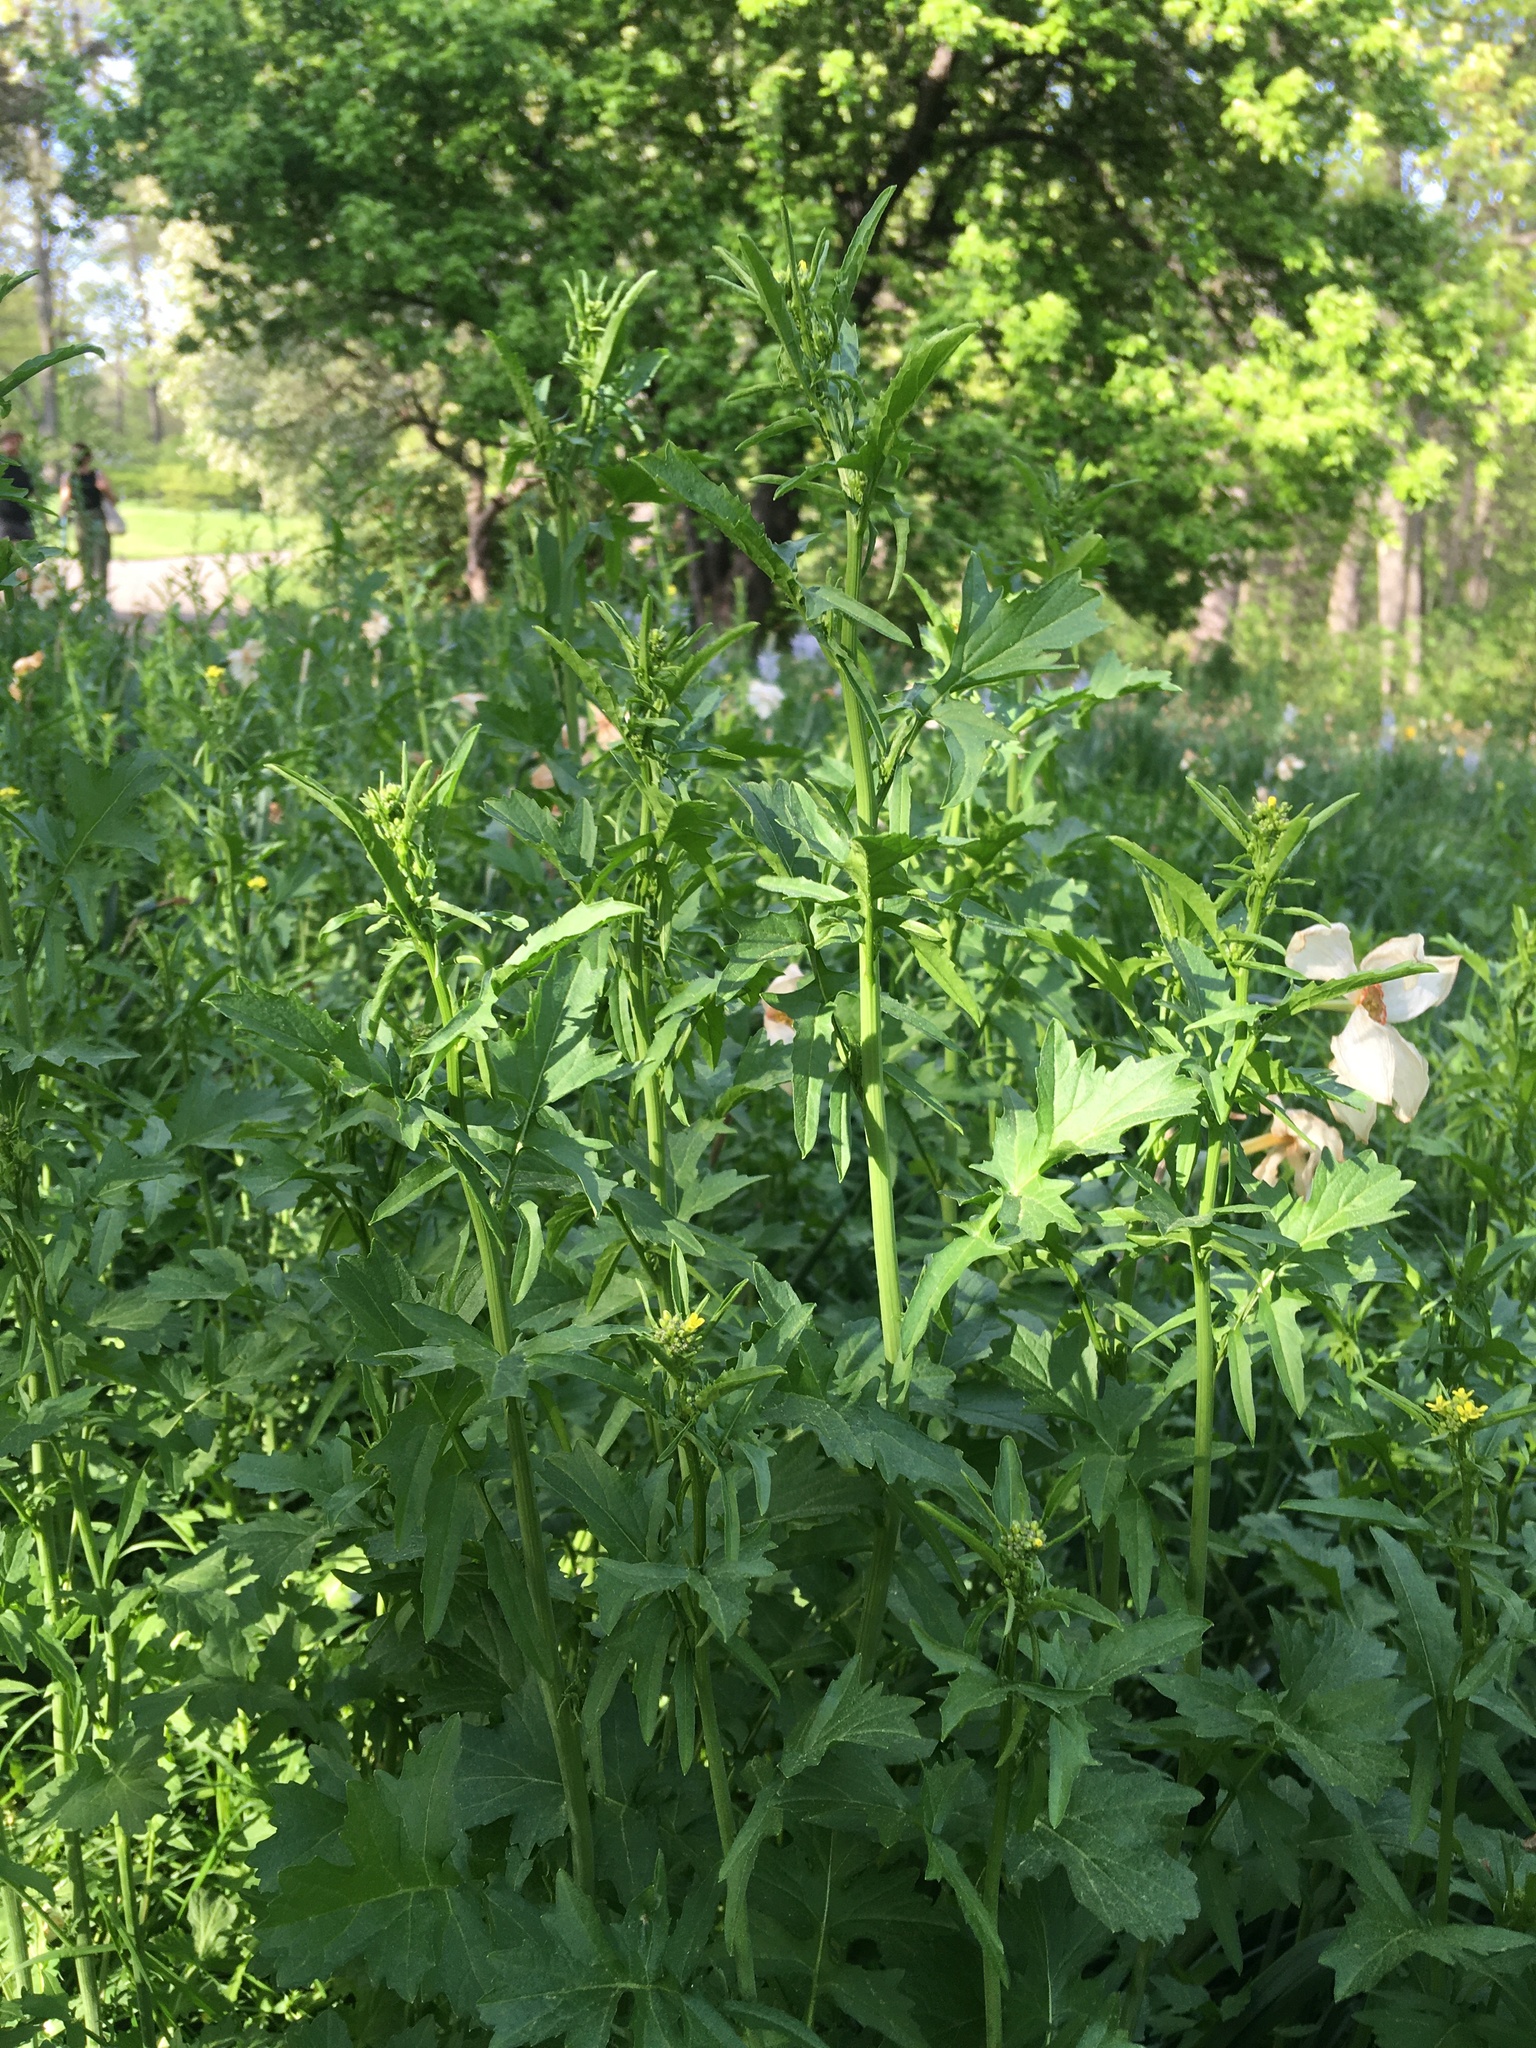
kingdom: Plantae
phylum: Tracheophyta
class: Magnoliopsida
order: Brassicales
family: Brassicaceae
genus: Sisymbrium
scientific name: Sisymbrium officinale
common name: Hedge mustard
